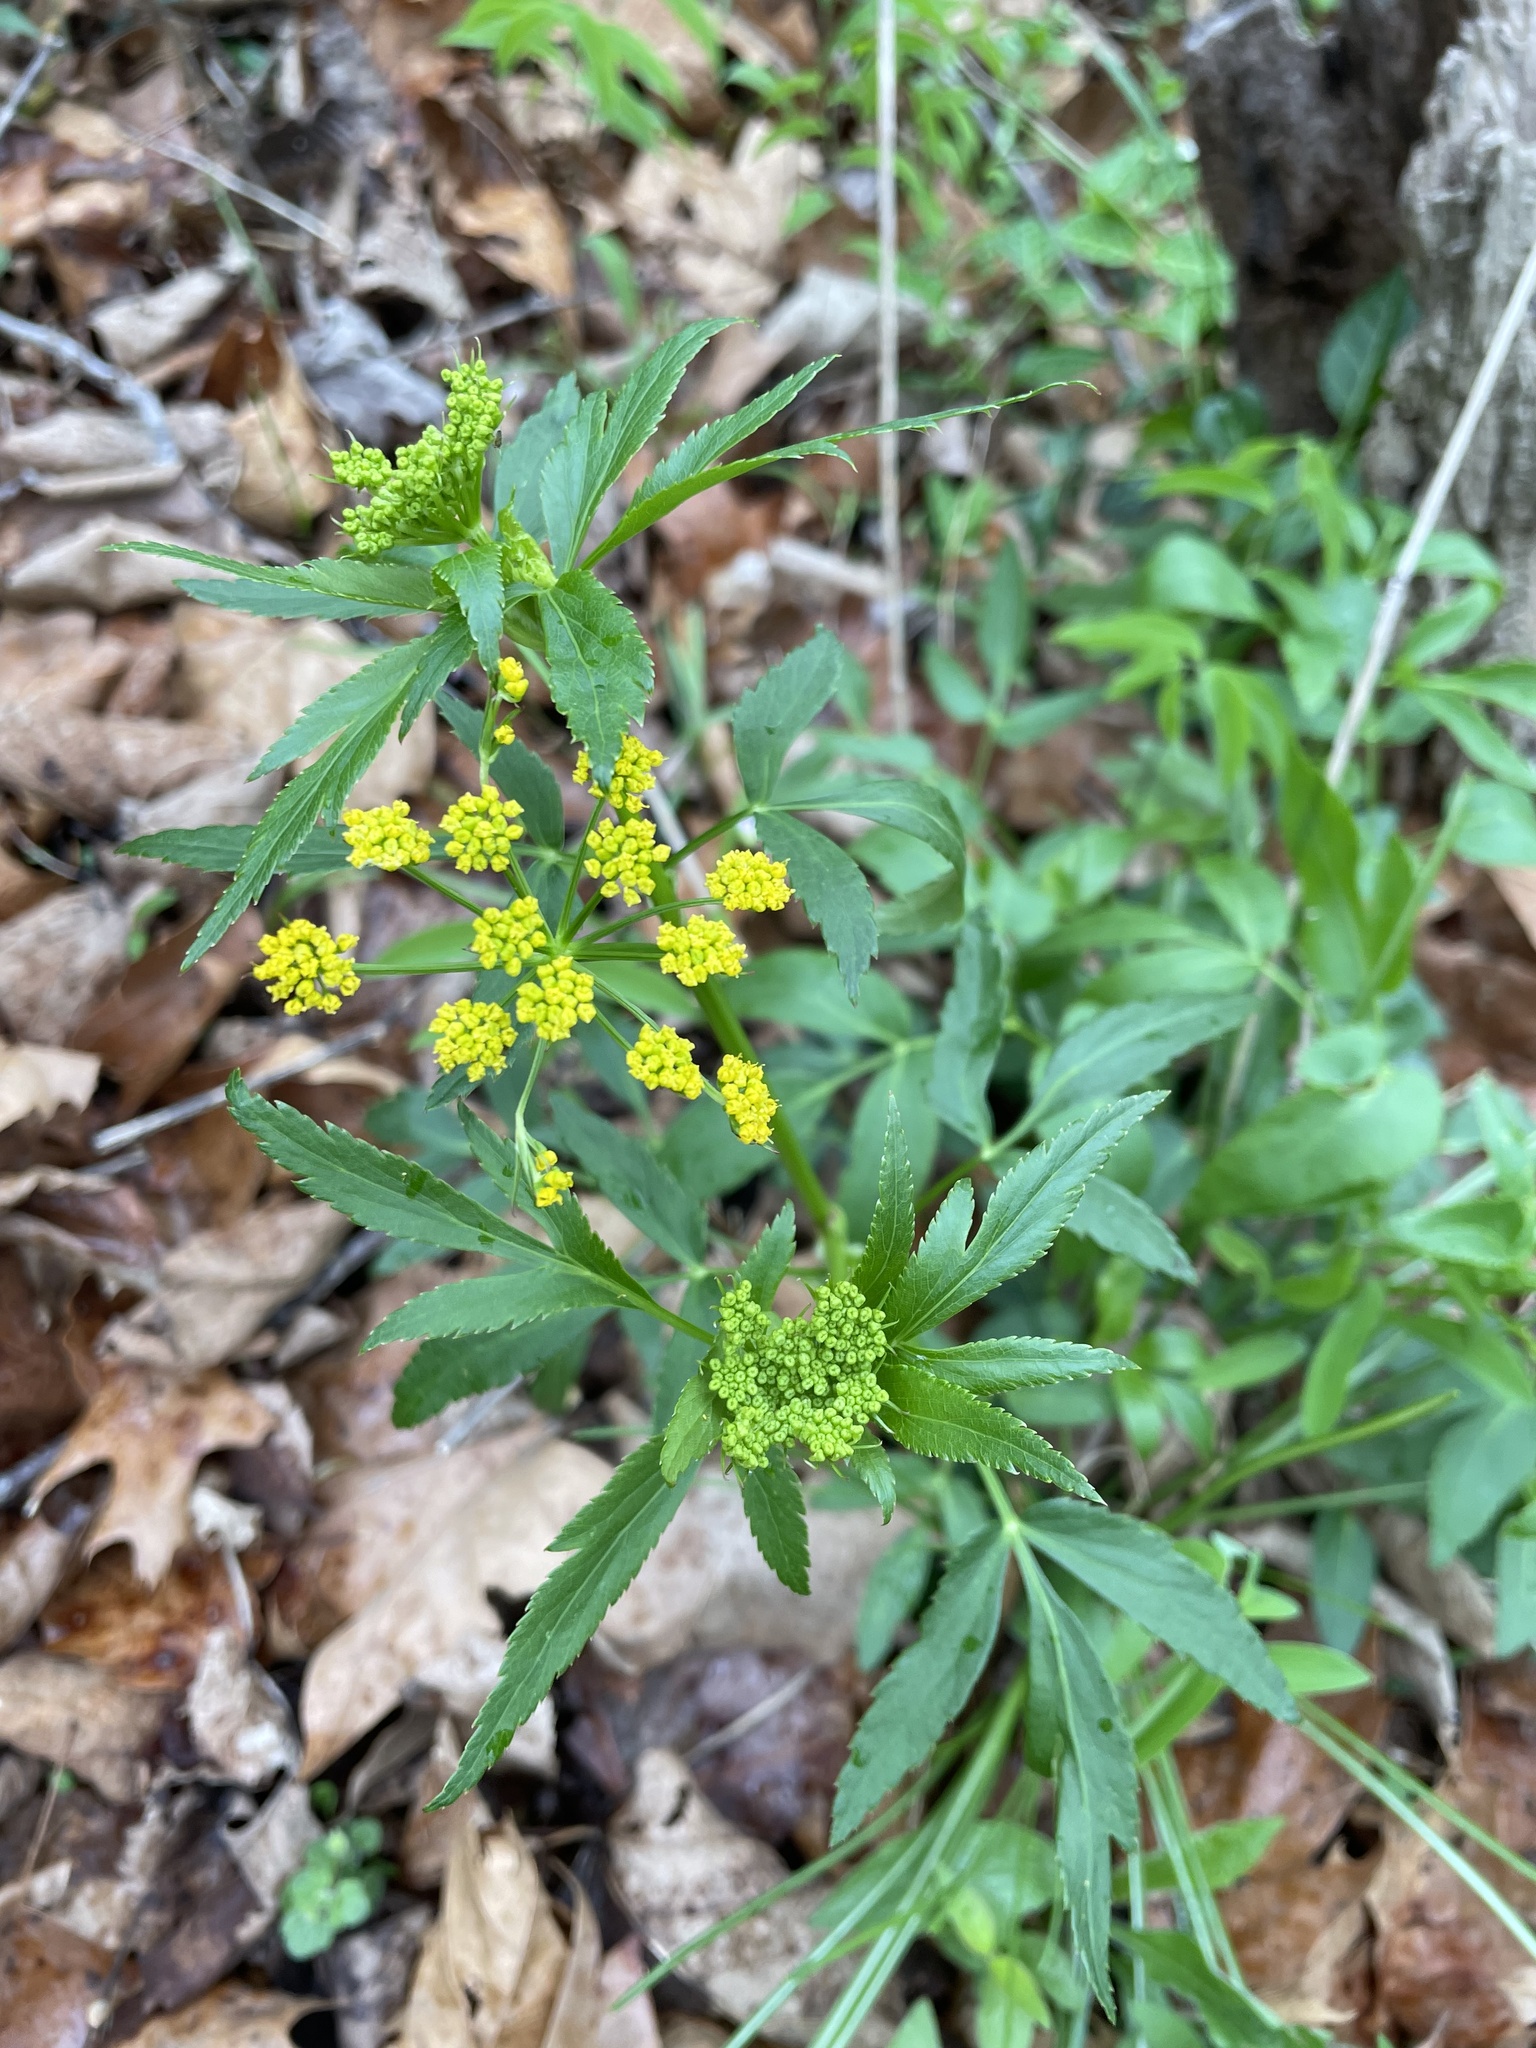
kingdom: Plantae
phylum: Tracheophyta
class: Magnoliopsida
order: Apiales
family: Apiaceae
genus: Zizia
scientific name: Zizia aurea
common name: Golden alexanders
